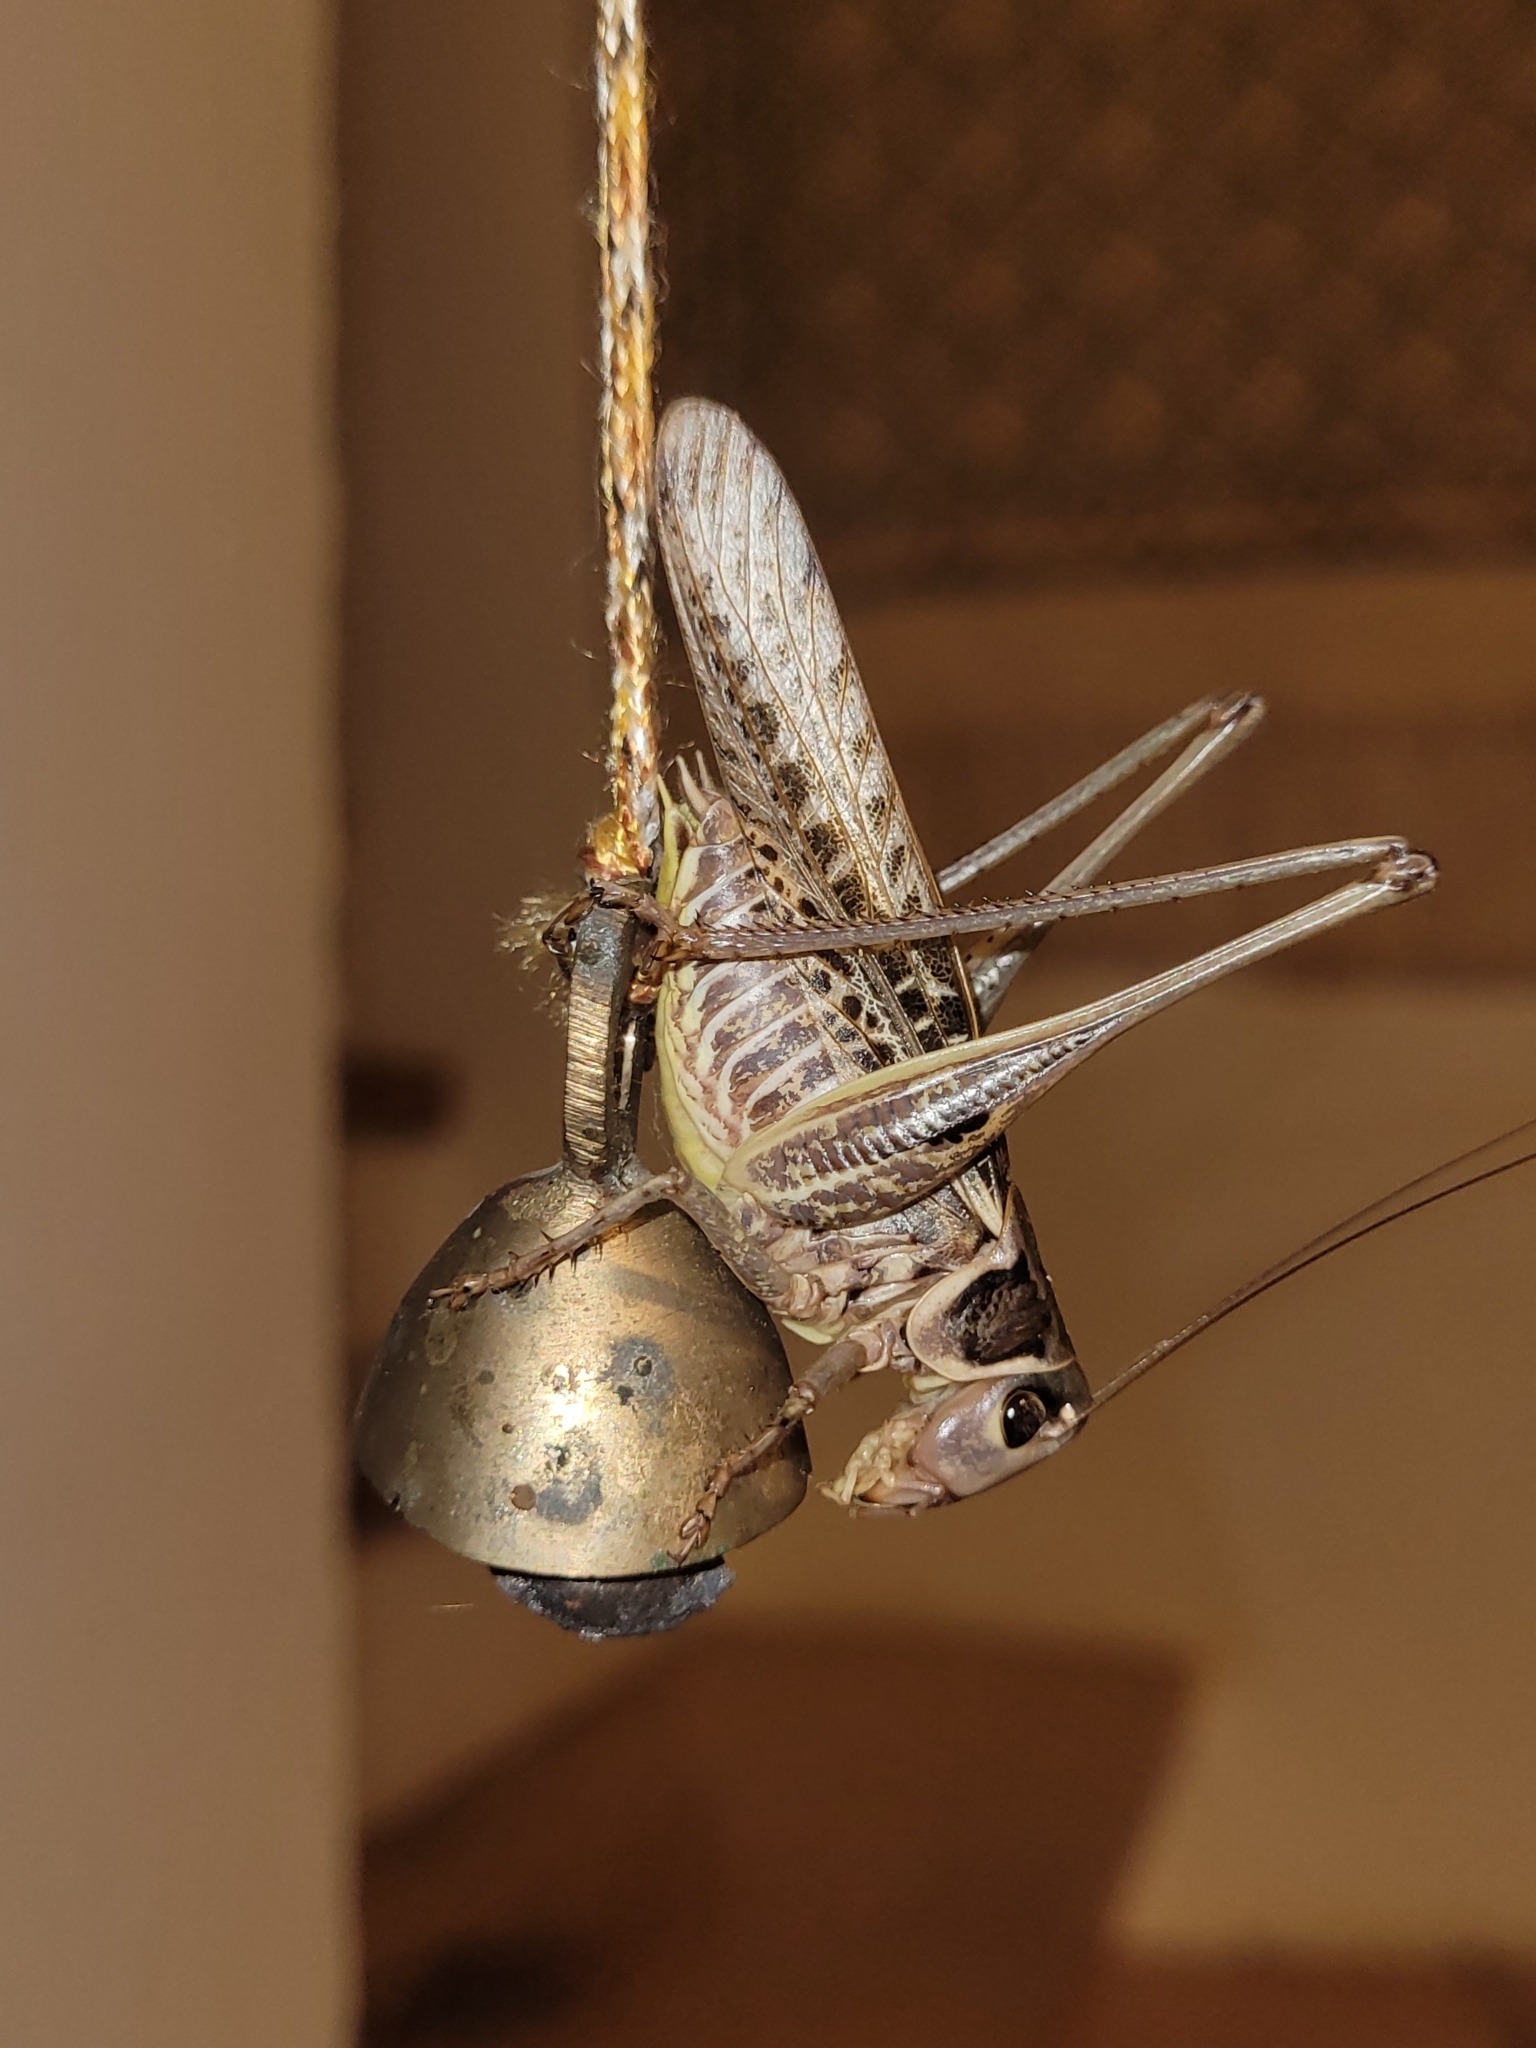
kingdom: Animalia
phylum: Arthropoda
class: Insecta
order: Orthoptera
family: Tettigoniidae
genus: Decticus
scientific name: Decticus albifrons
